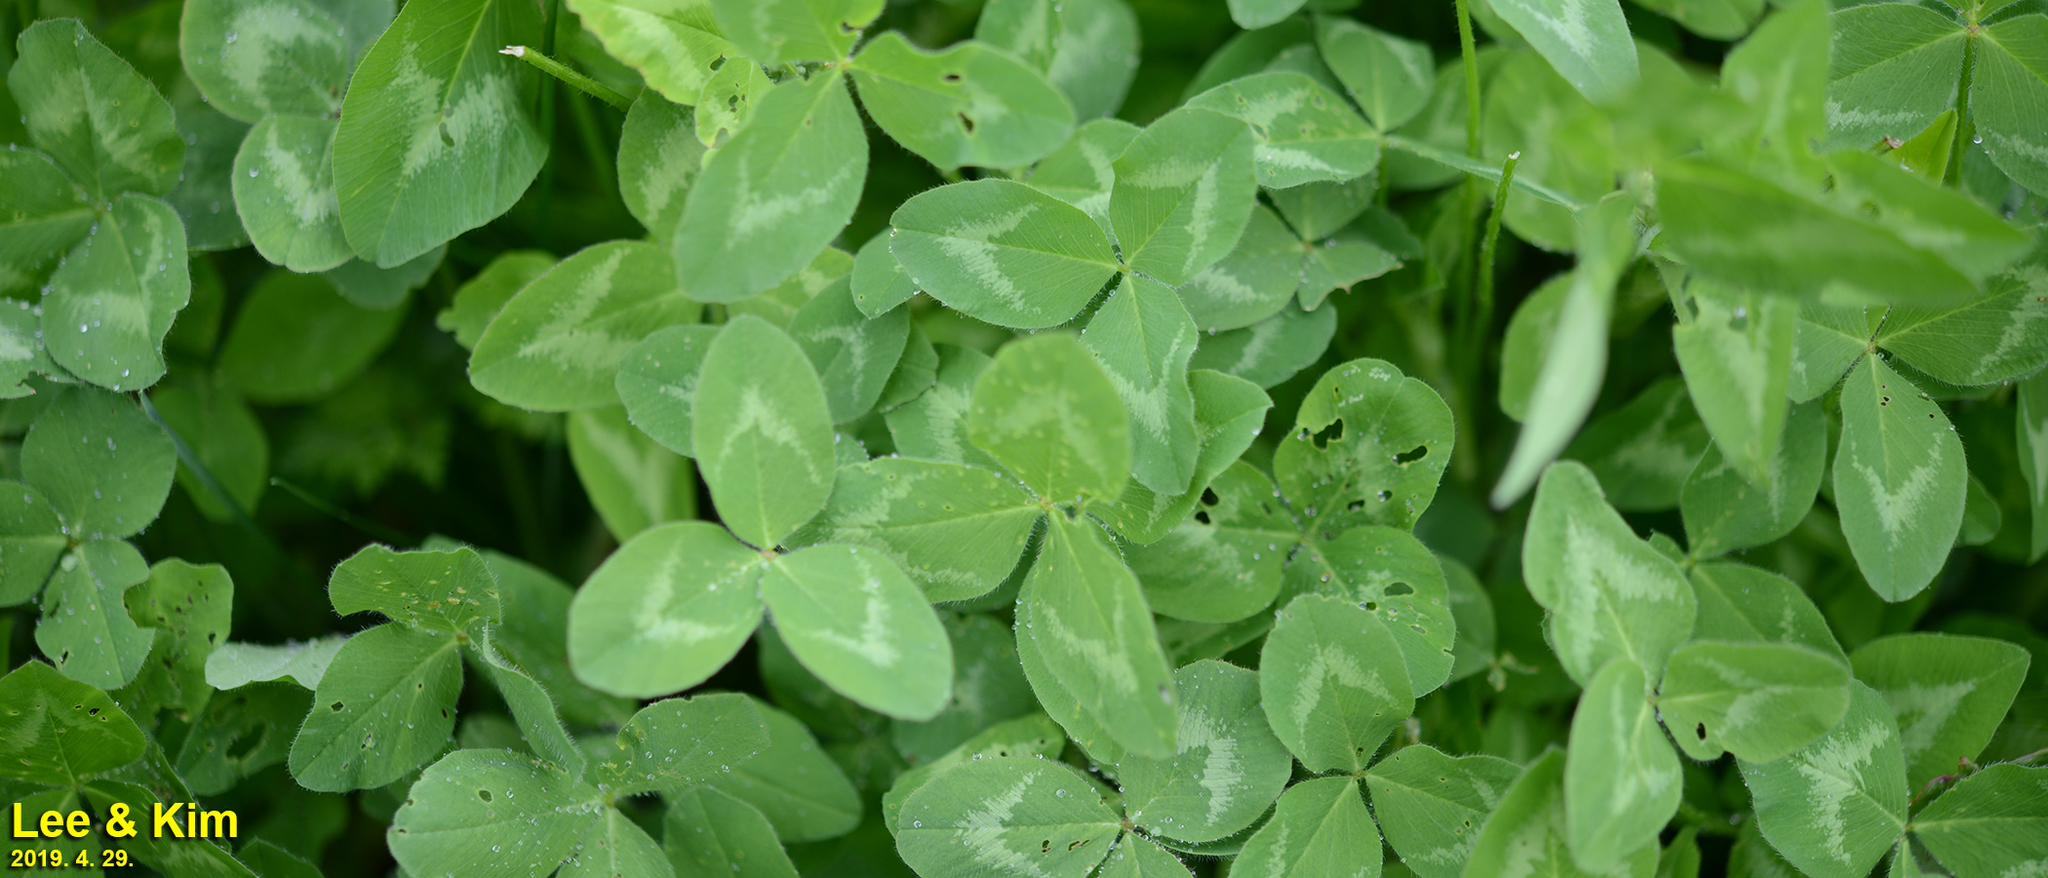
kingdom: Plantae
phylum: Tracheophyta
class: Magnoliopsida
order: Fabales
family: Fabaceae
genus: Trifolium
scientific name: Trifolium pratense
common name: Red clover
